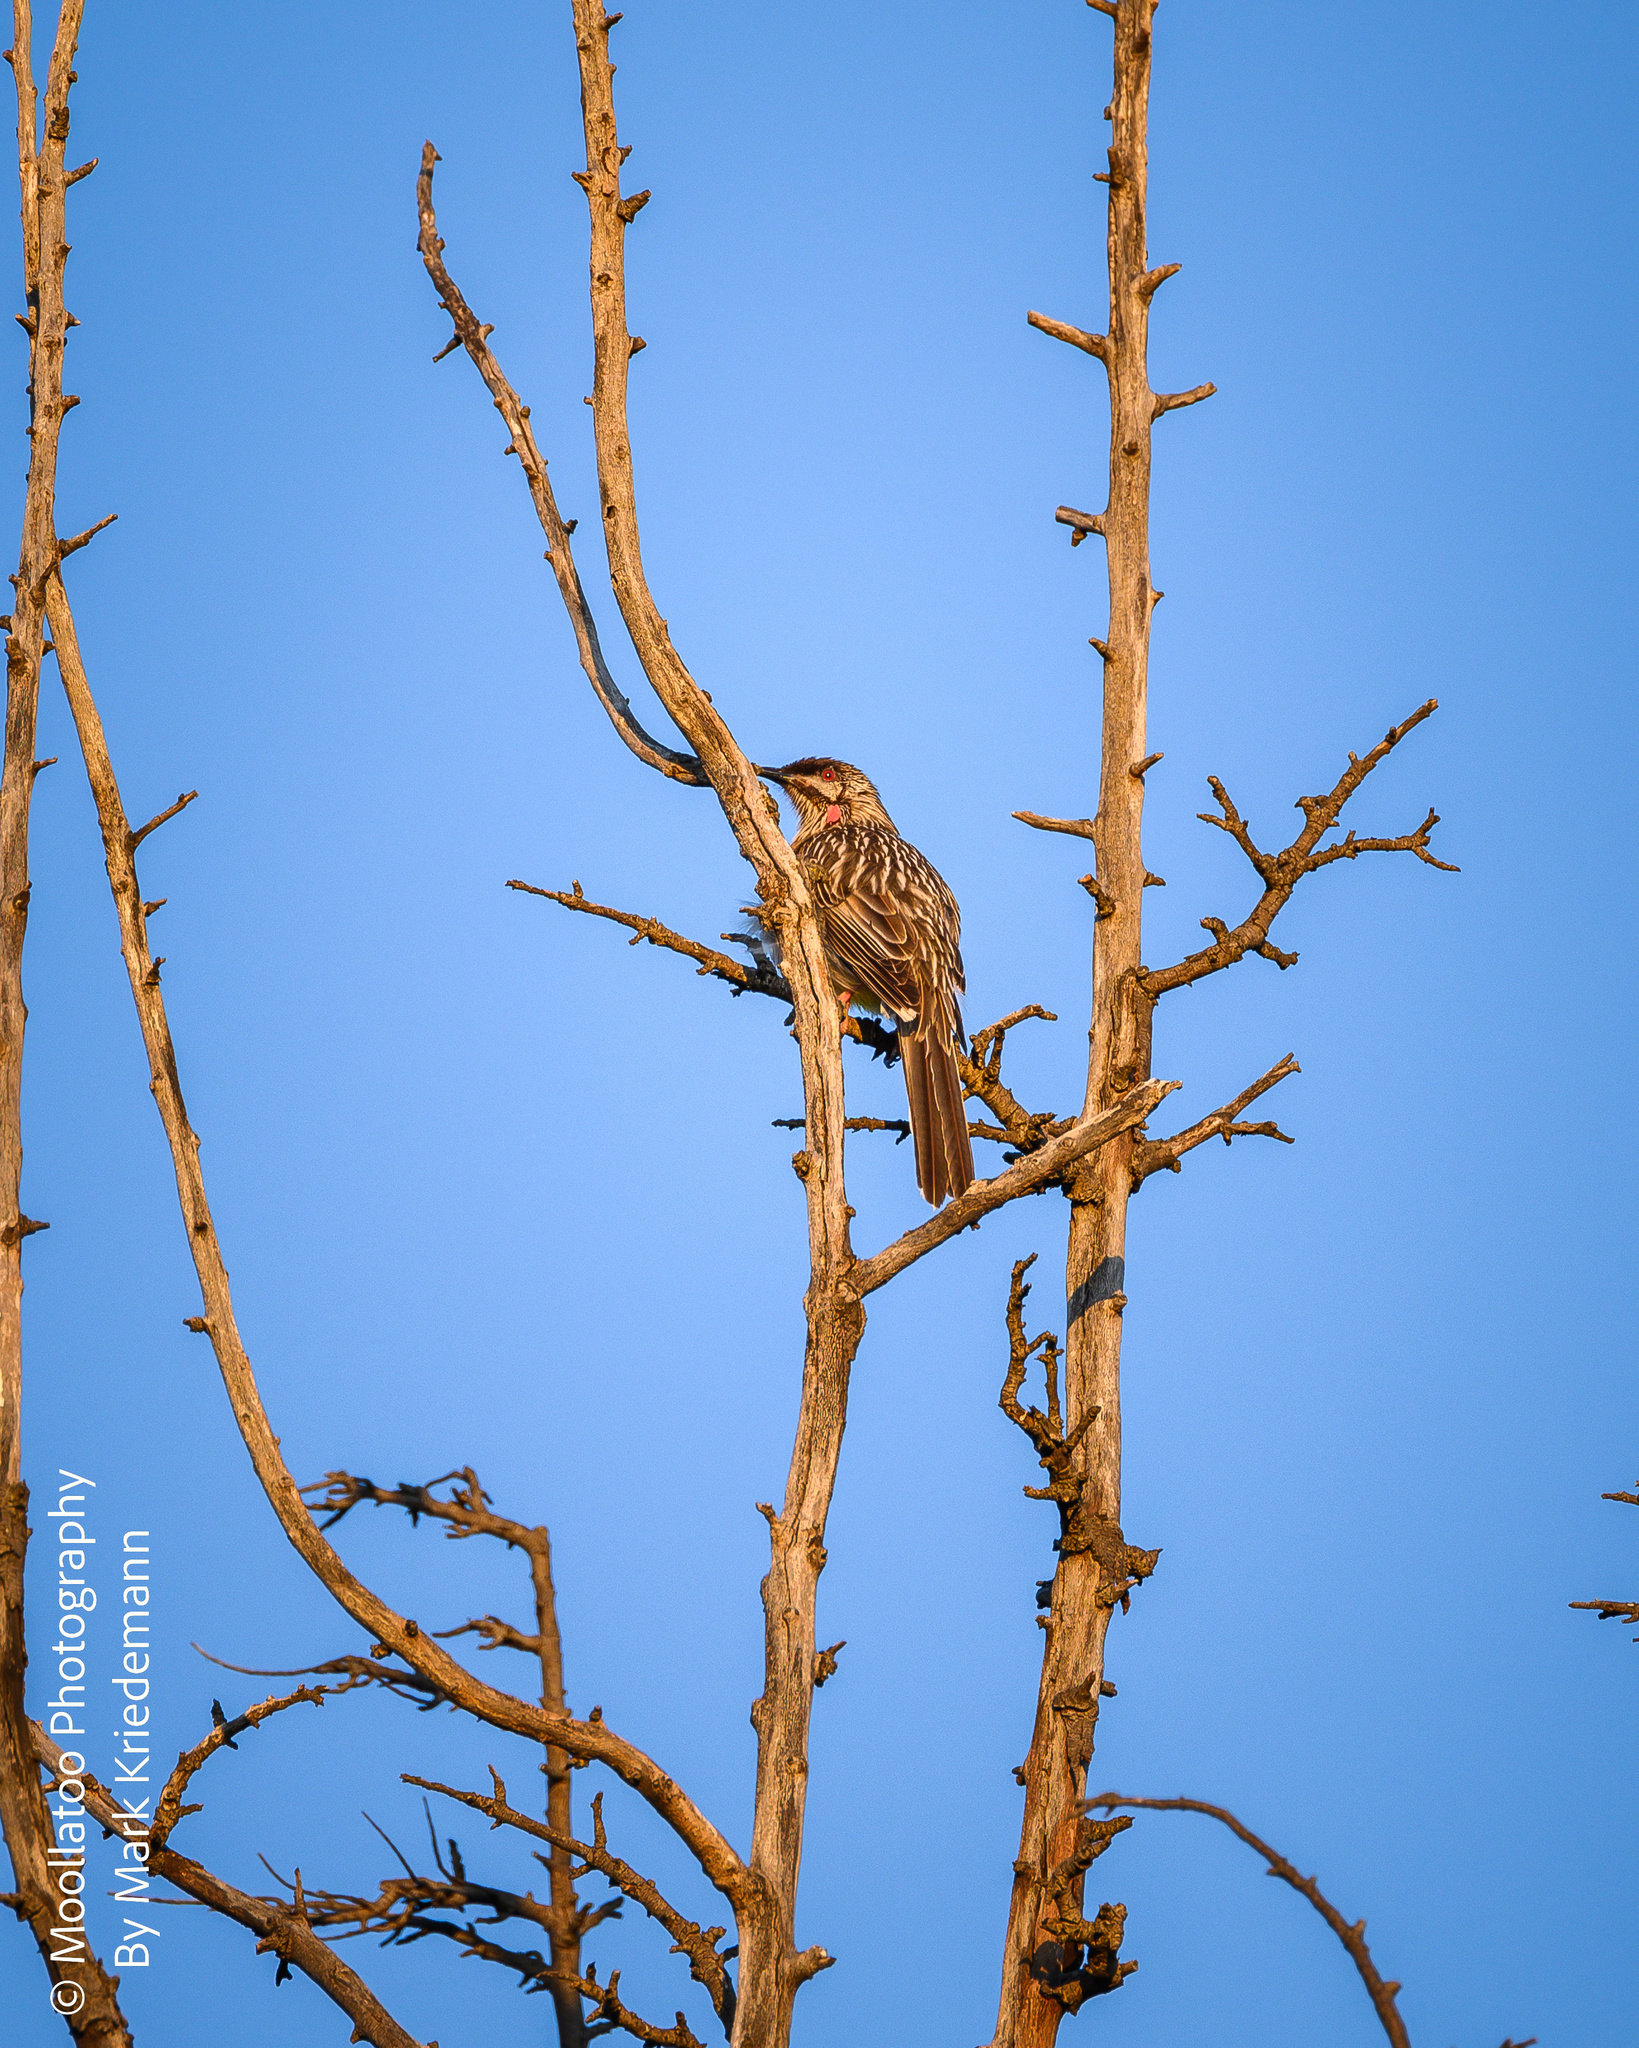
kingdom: Animalia
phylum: Chordata
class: Aves
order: Passeriformes
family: Meliphagidae
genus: Anthochaera
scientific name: Anthochaera carunculata
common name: Red wattlebird
